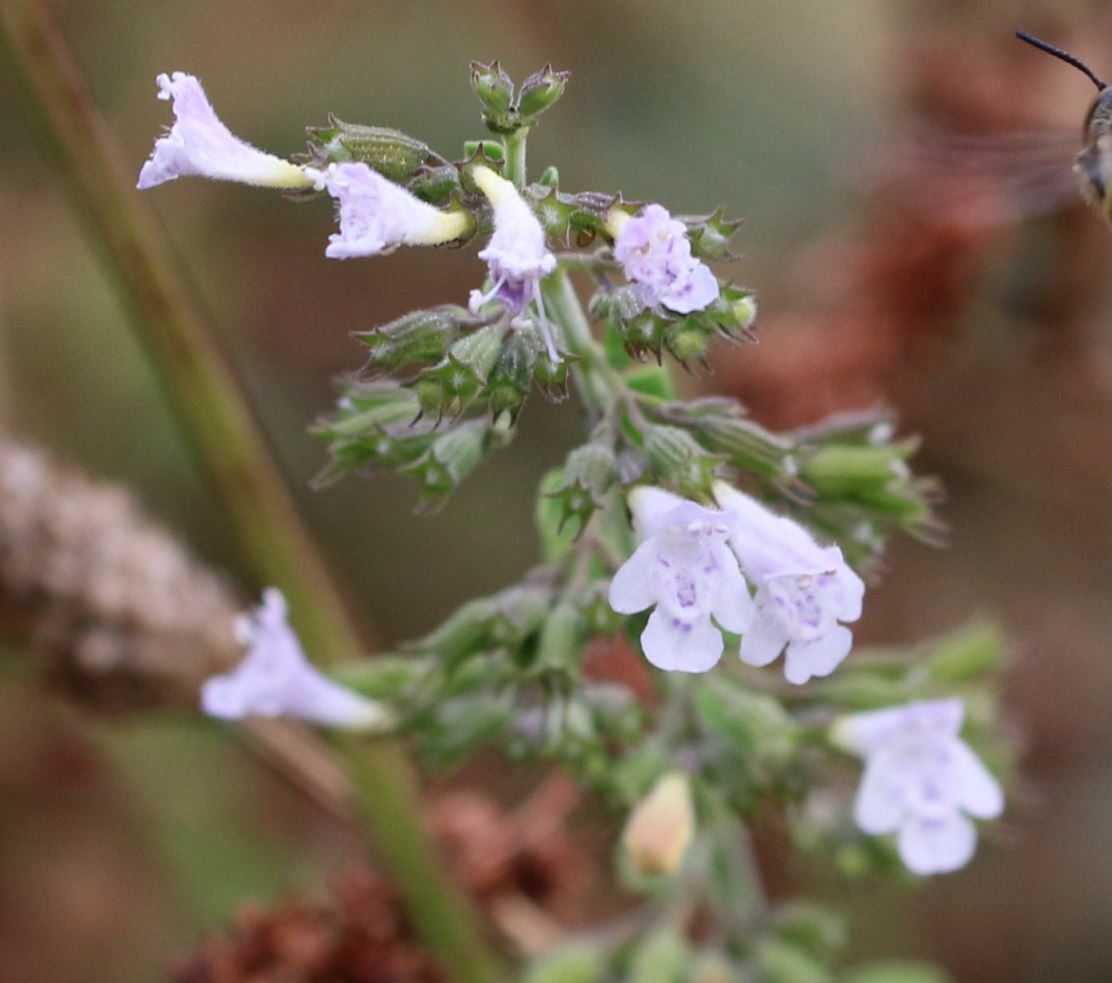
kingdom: Plantae
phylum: Tracheophyta
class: Magnoliopsida
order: Lamiales
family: Lamiaceae
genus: Clinopodium
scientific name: Clinopodium nepeta
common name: Lesser calamint
